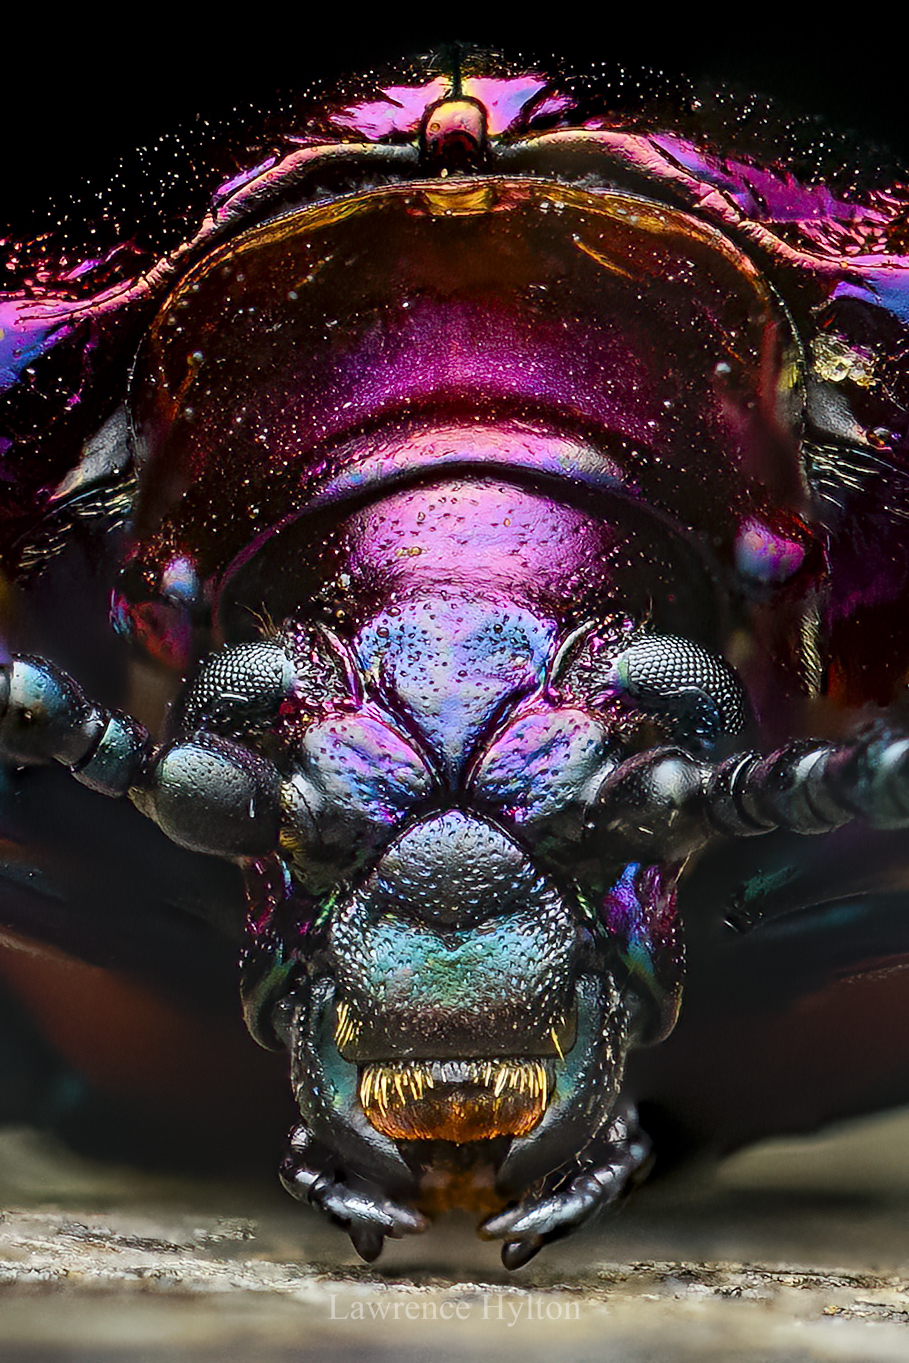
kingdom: Animalia
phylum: Arthropoda
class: Insecta
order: Coleoptera
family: Chrysomelidae
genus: Sagra
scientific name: Sagra femorata
